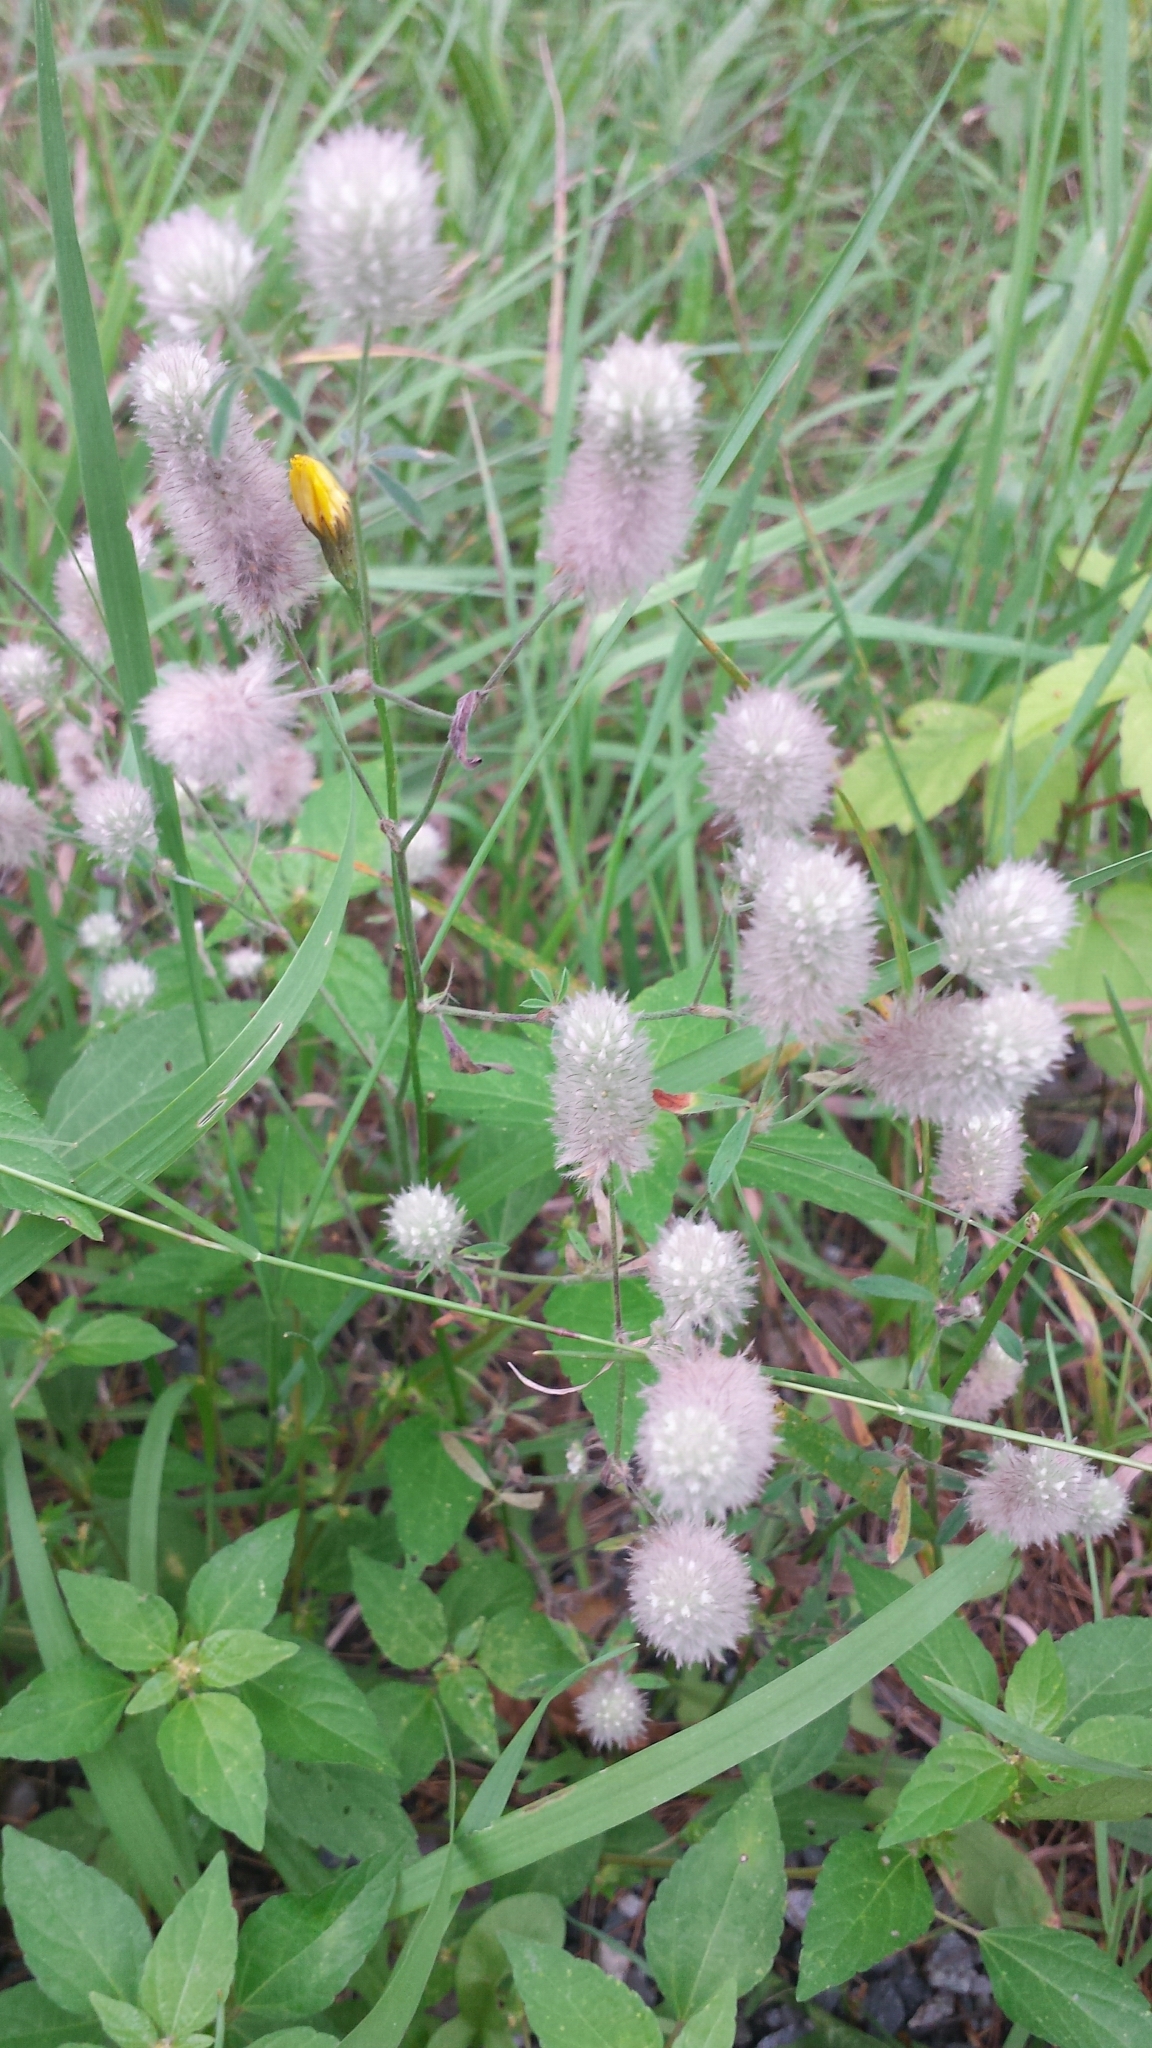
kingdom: Plantae
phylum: Tracheophyta
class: Magnoliopsida
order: Fabales
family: Fabaceae
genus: Trifolium
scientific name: Trifolium arvense
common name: Hare's-foot clover
